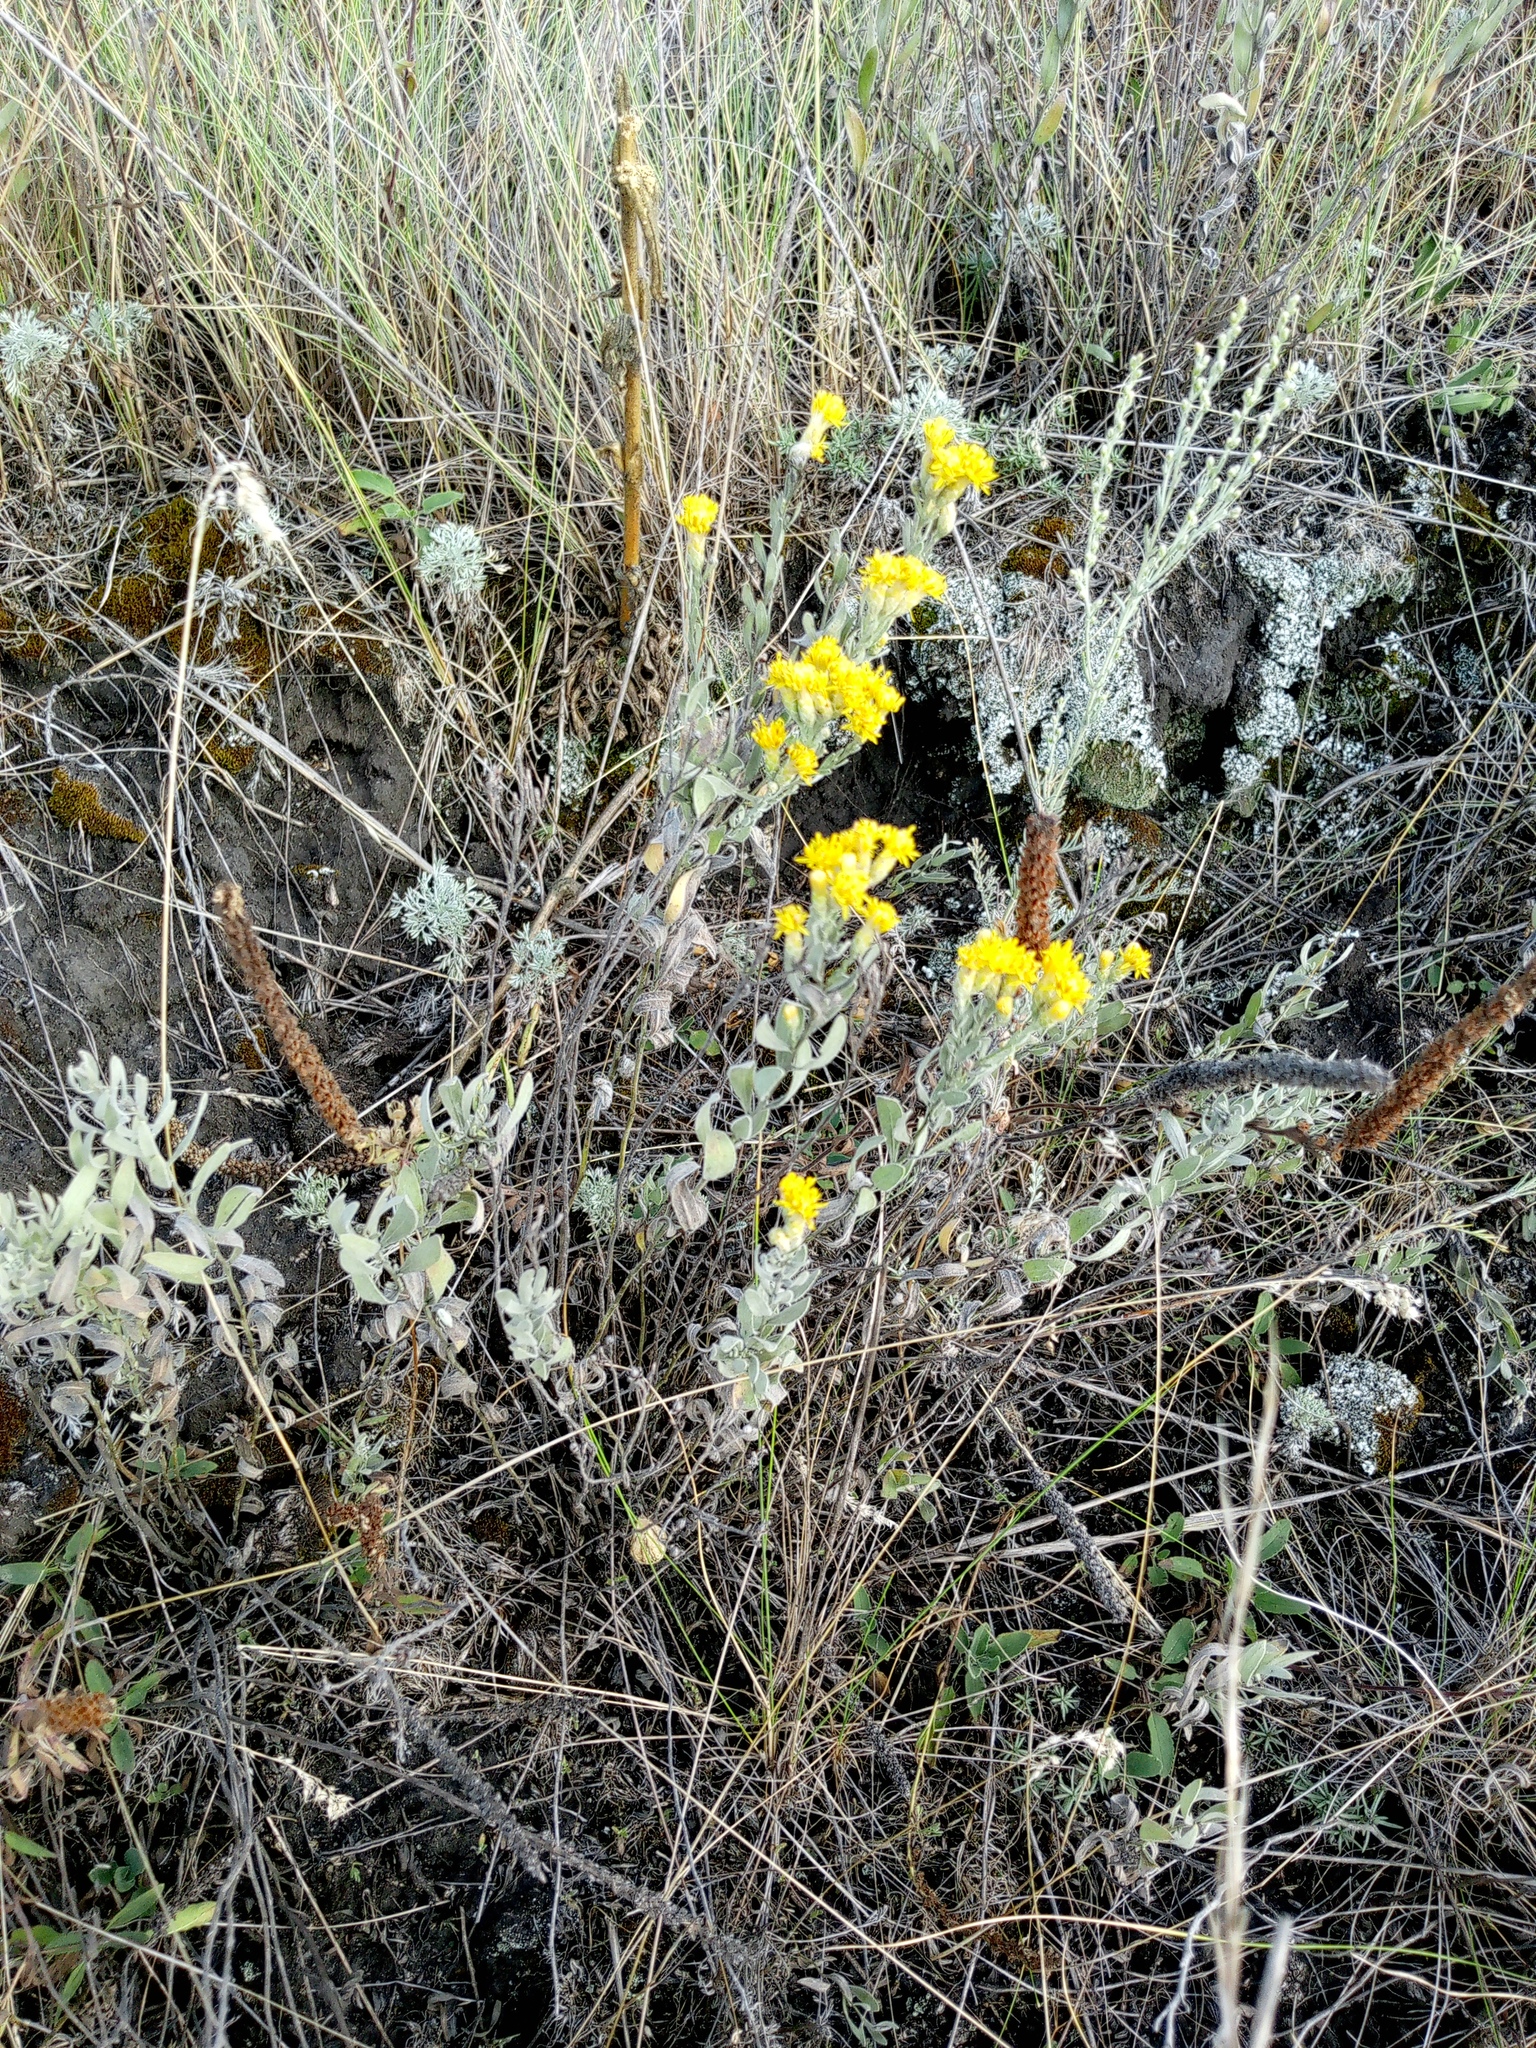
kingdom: Plantae
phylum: Tracheophyta
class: Magnoliopsida
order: Asterales
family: Asteraceae
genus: Galatella
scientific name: Galatella villosa
